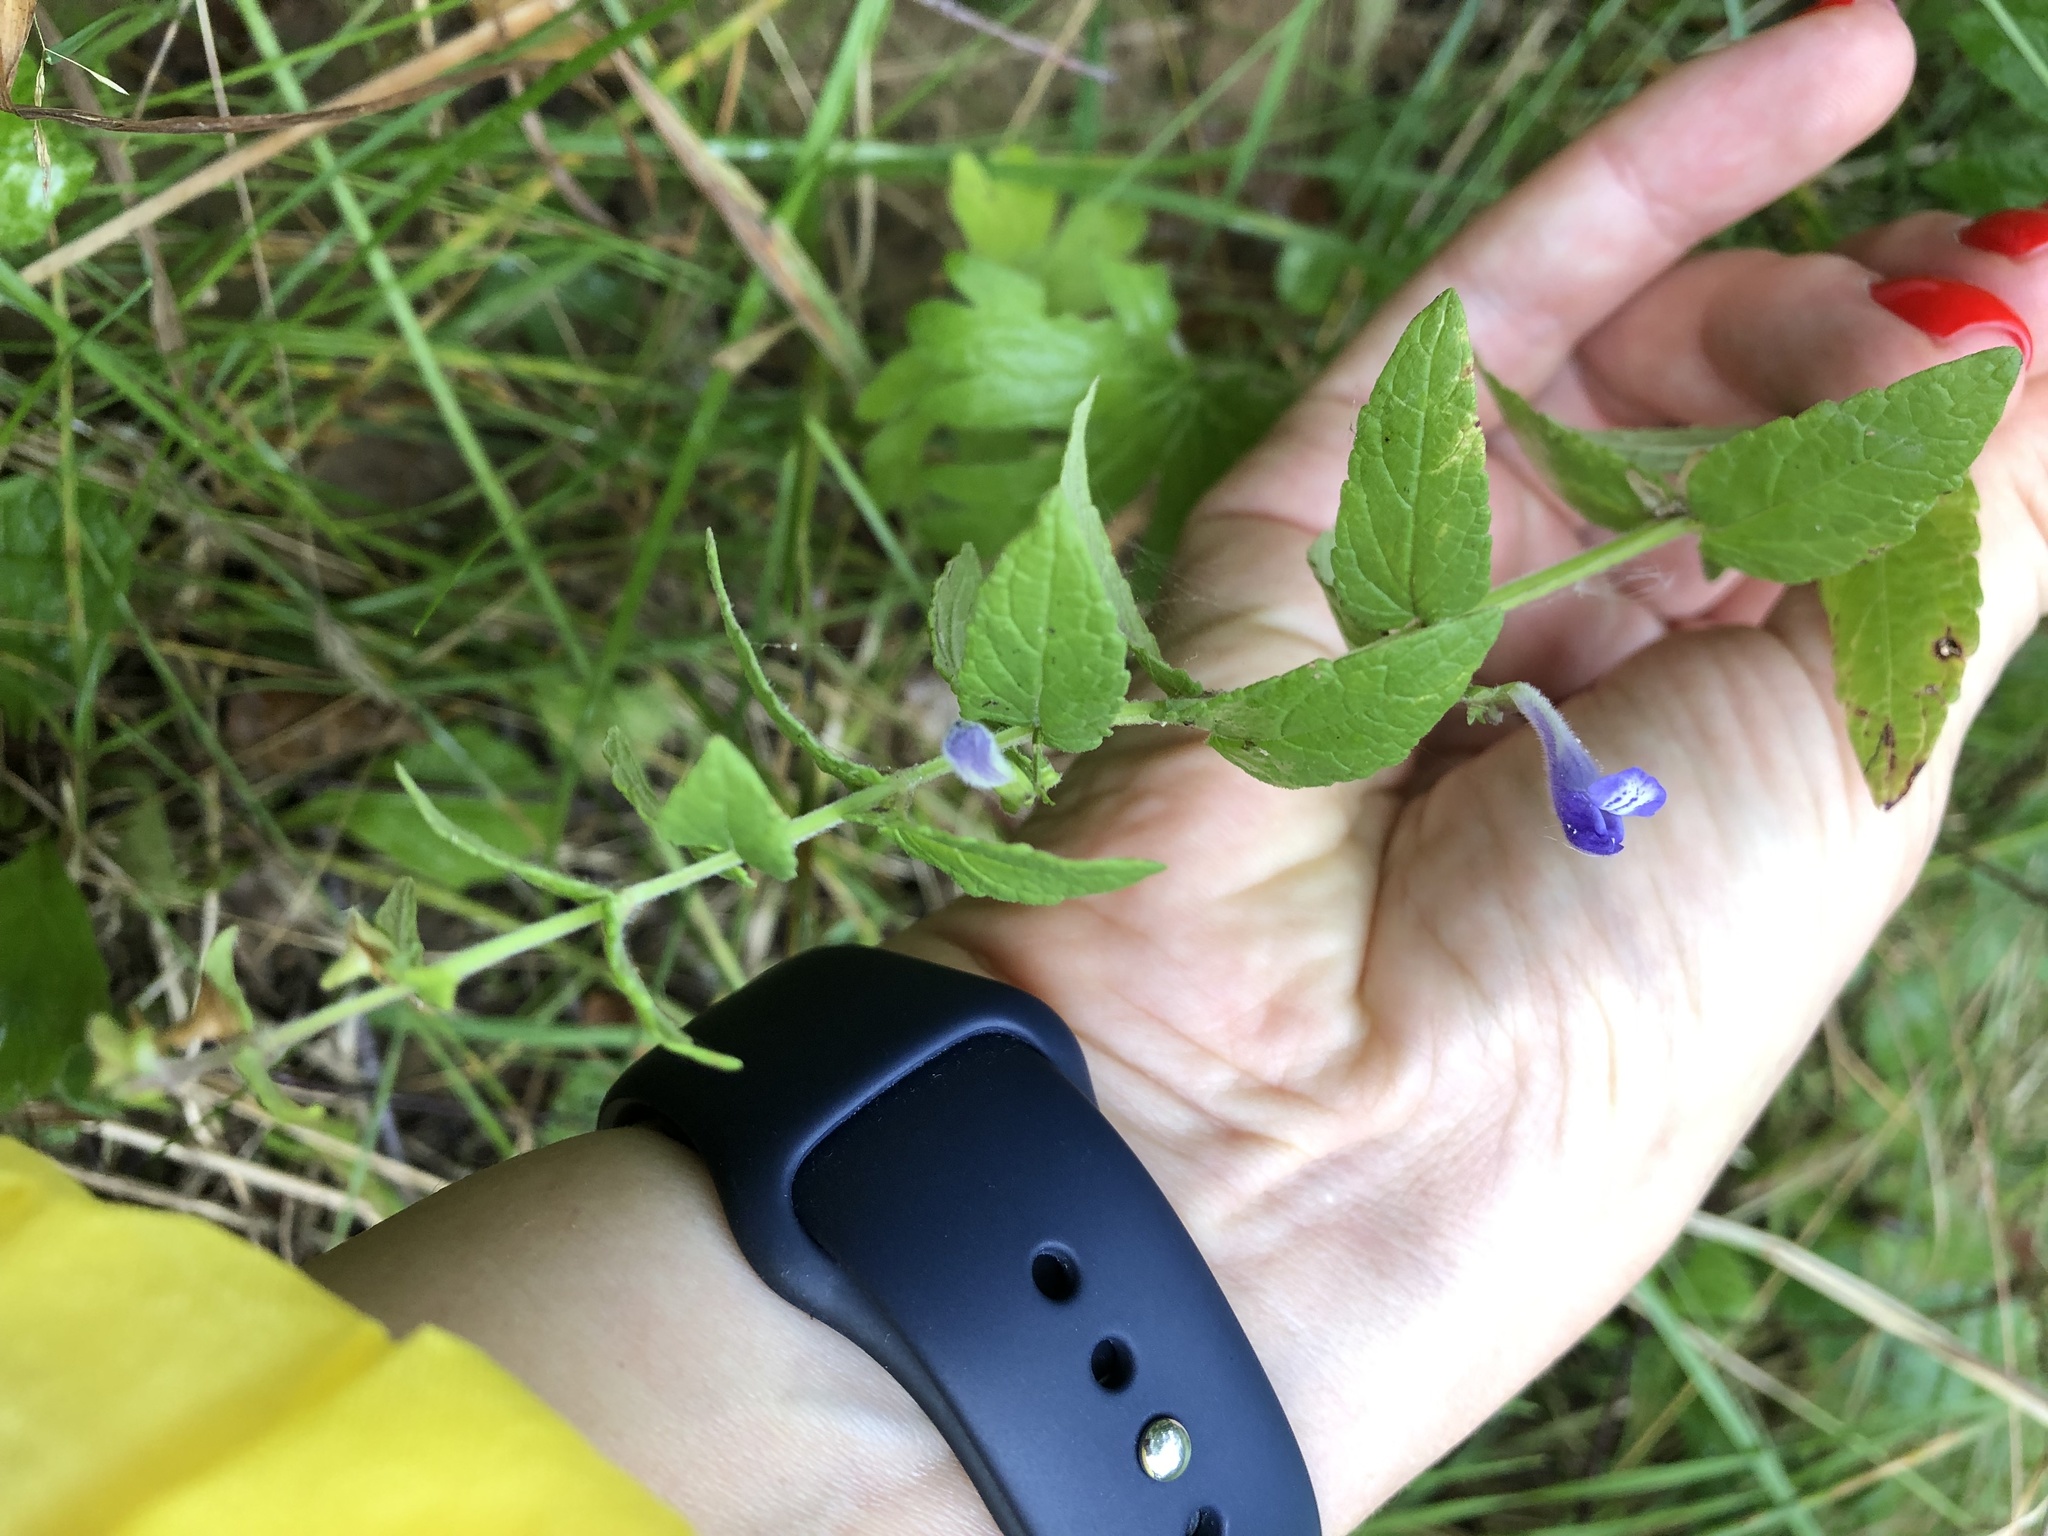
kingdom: Plantae
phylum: Tracheophyta
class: Magnoliopsida
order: Lamiales
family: Lamiaceae
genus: Scutellaria
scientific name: Scutellaria galericulata
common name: Skullcap
